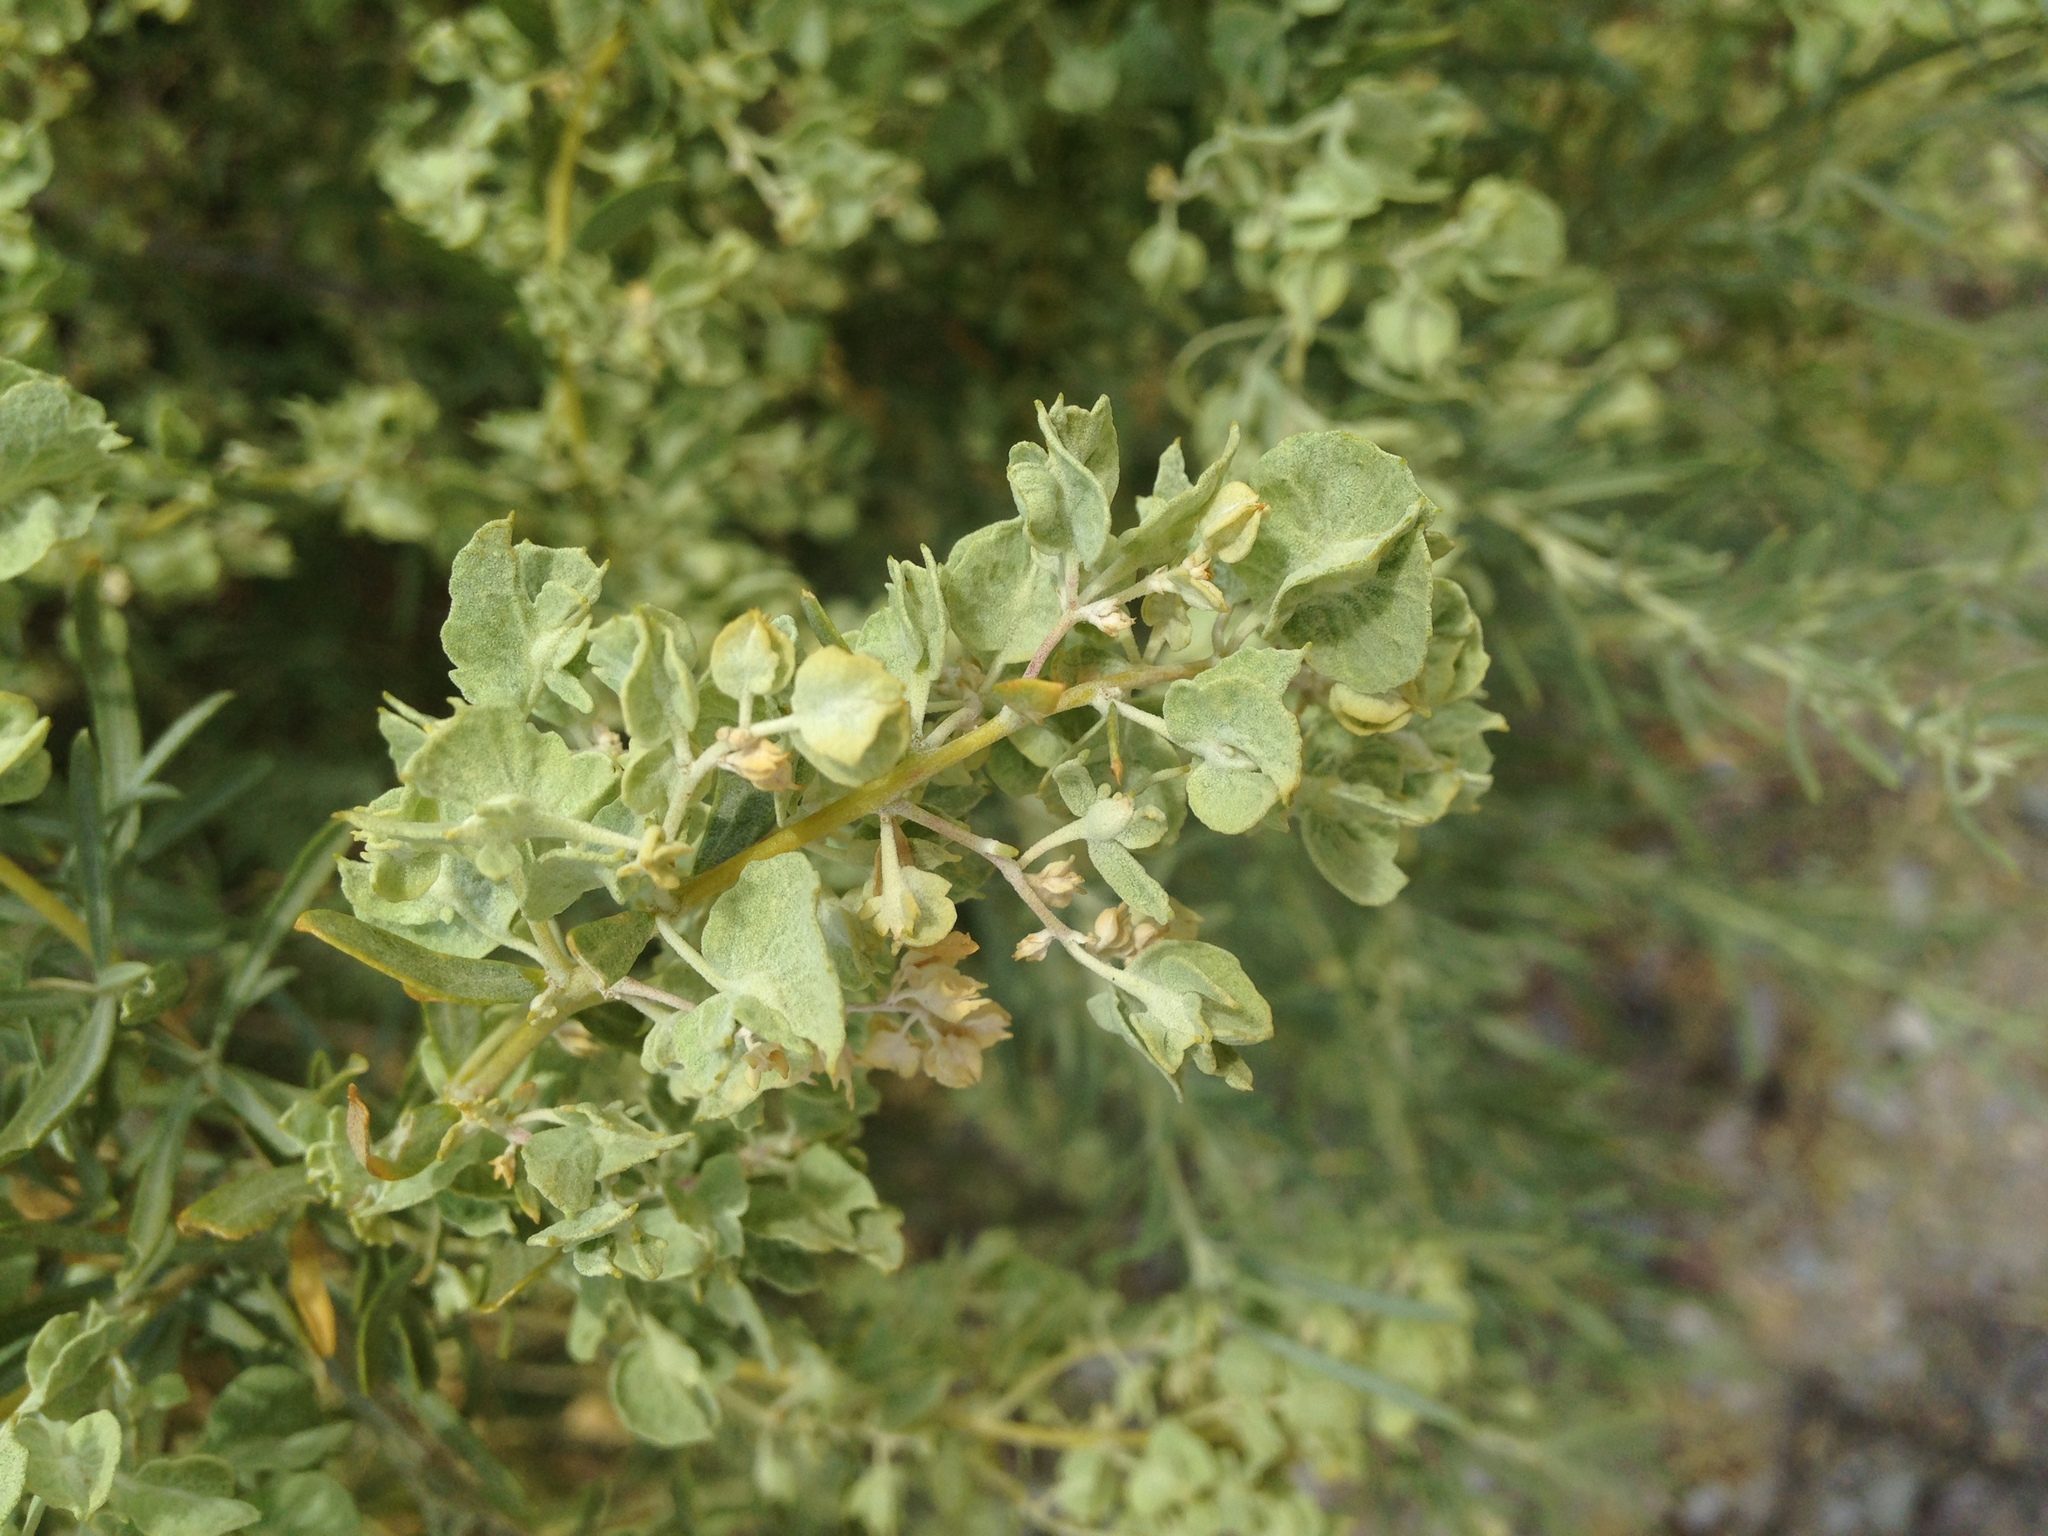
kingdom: Plantae
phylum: Tracheophyta
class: Magnoliopsida
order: Caryophyllales
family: Amaranthaceae
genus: Atriplex
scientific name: Atriplex canescens
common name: Four-wing saltbush
